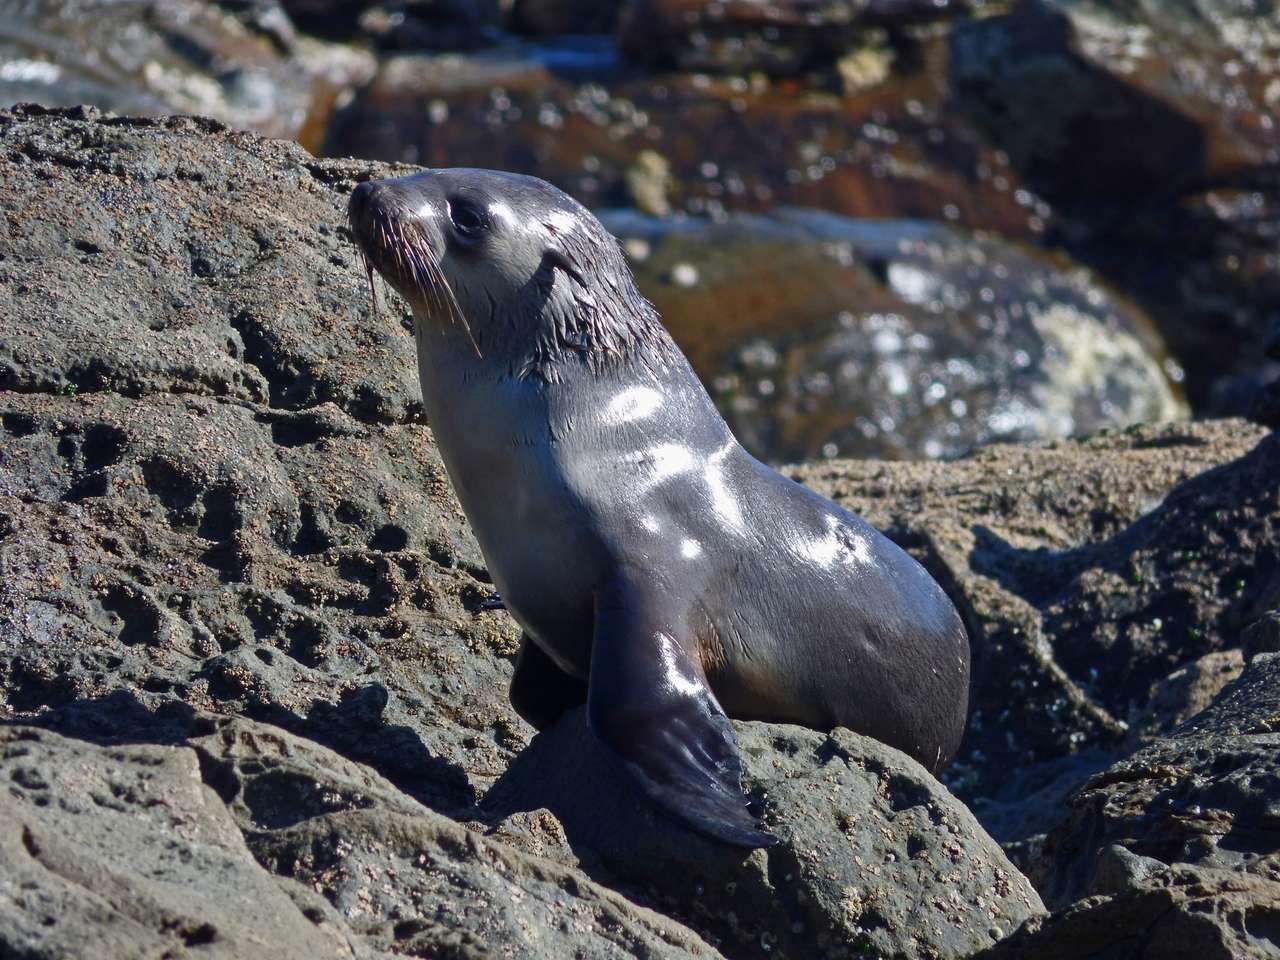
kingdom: Animalia
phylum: Chordata
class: Mammalia
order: Carnivora
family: Otariidae
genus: Arctocephalus
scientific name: Arctocephalus pusillus
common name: Brown fur seal
